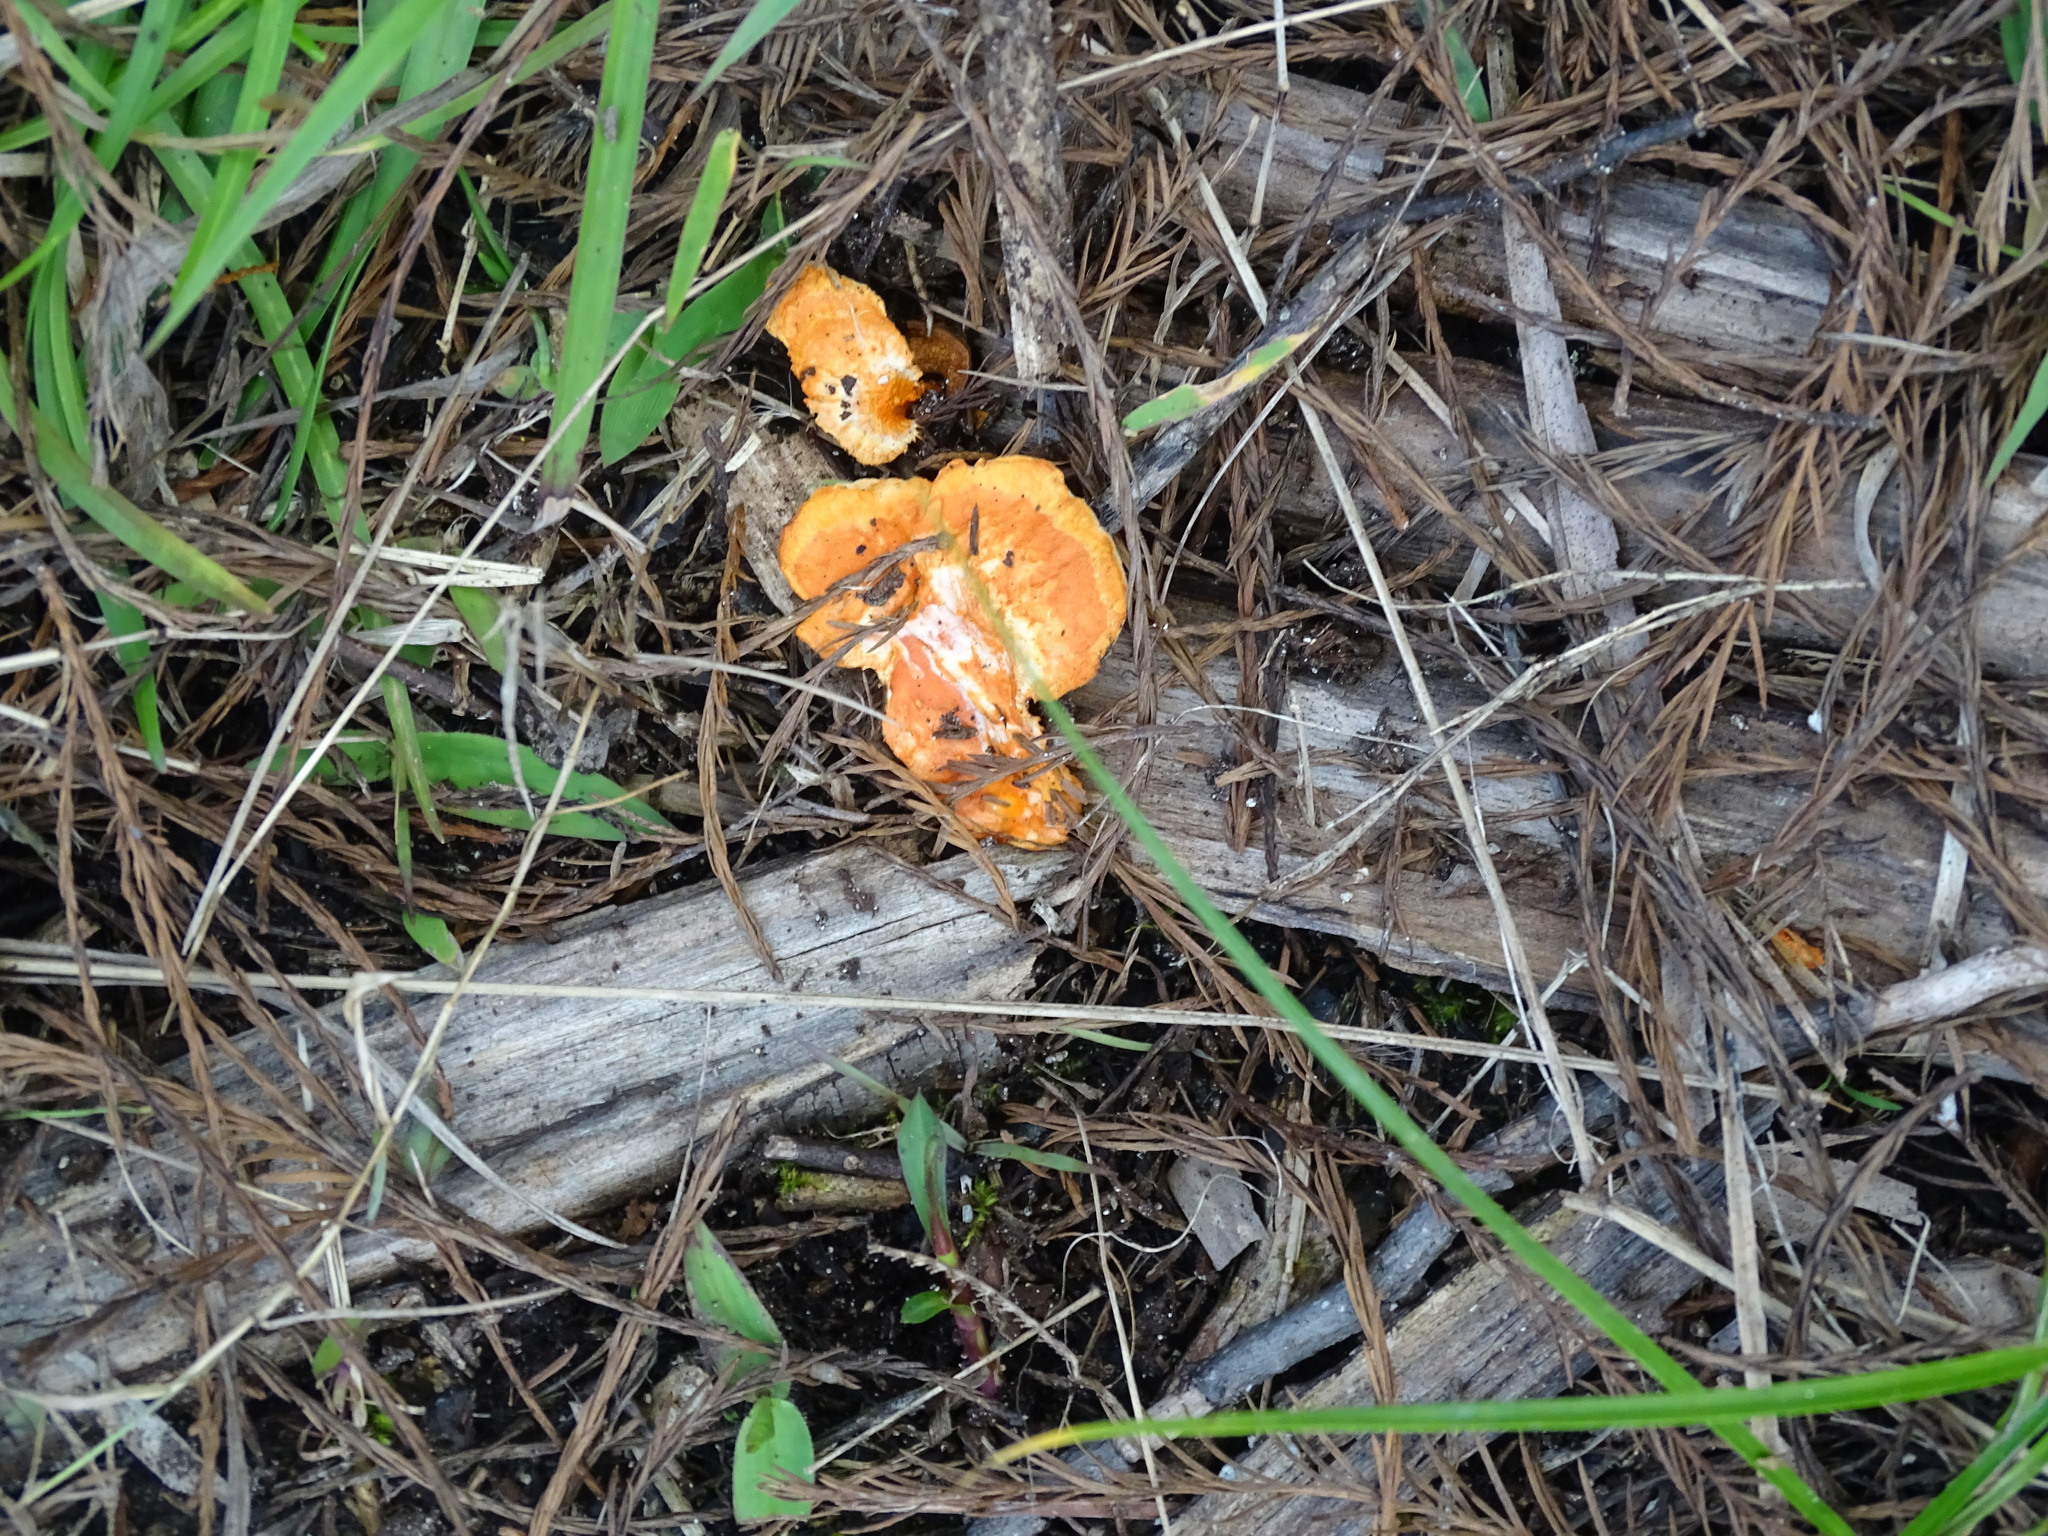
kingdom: Fungi
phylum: Basidiomycota
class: Agaricomycetes
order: Polyporales
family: Polyporaceae
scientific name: Polyporaceae
